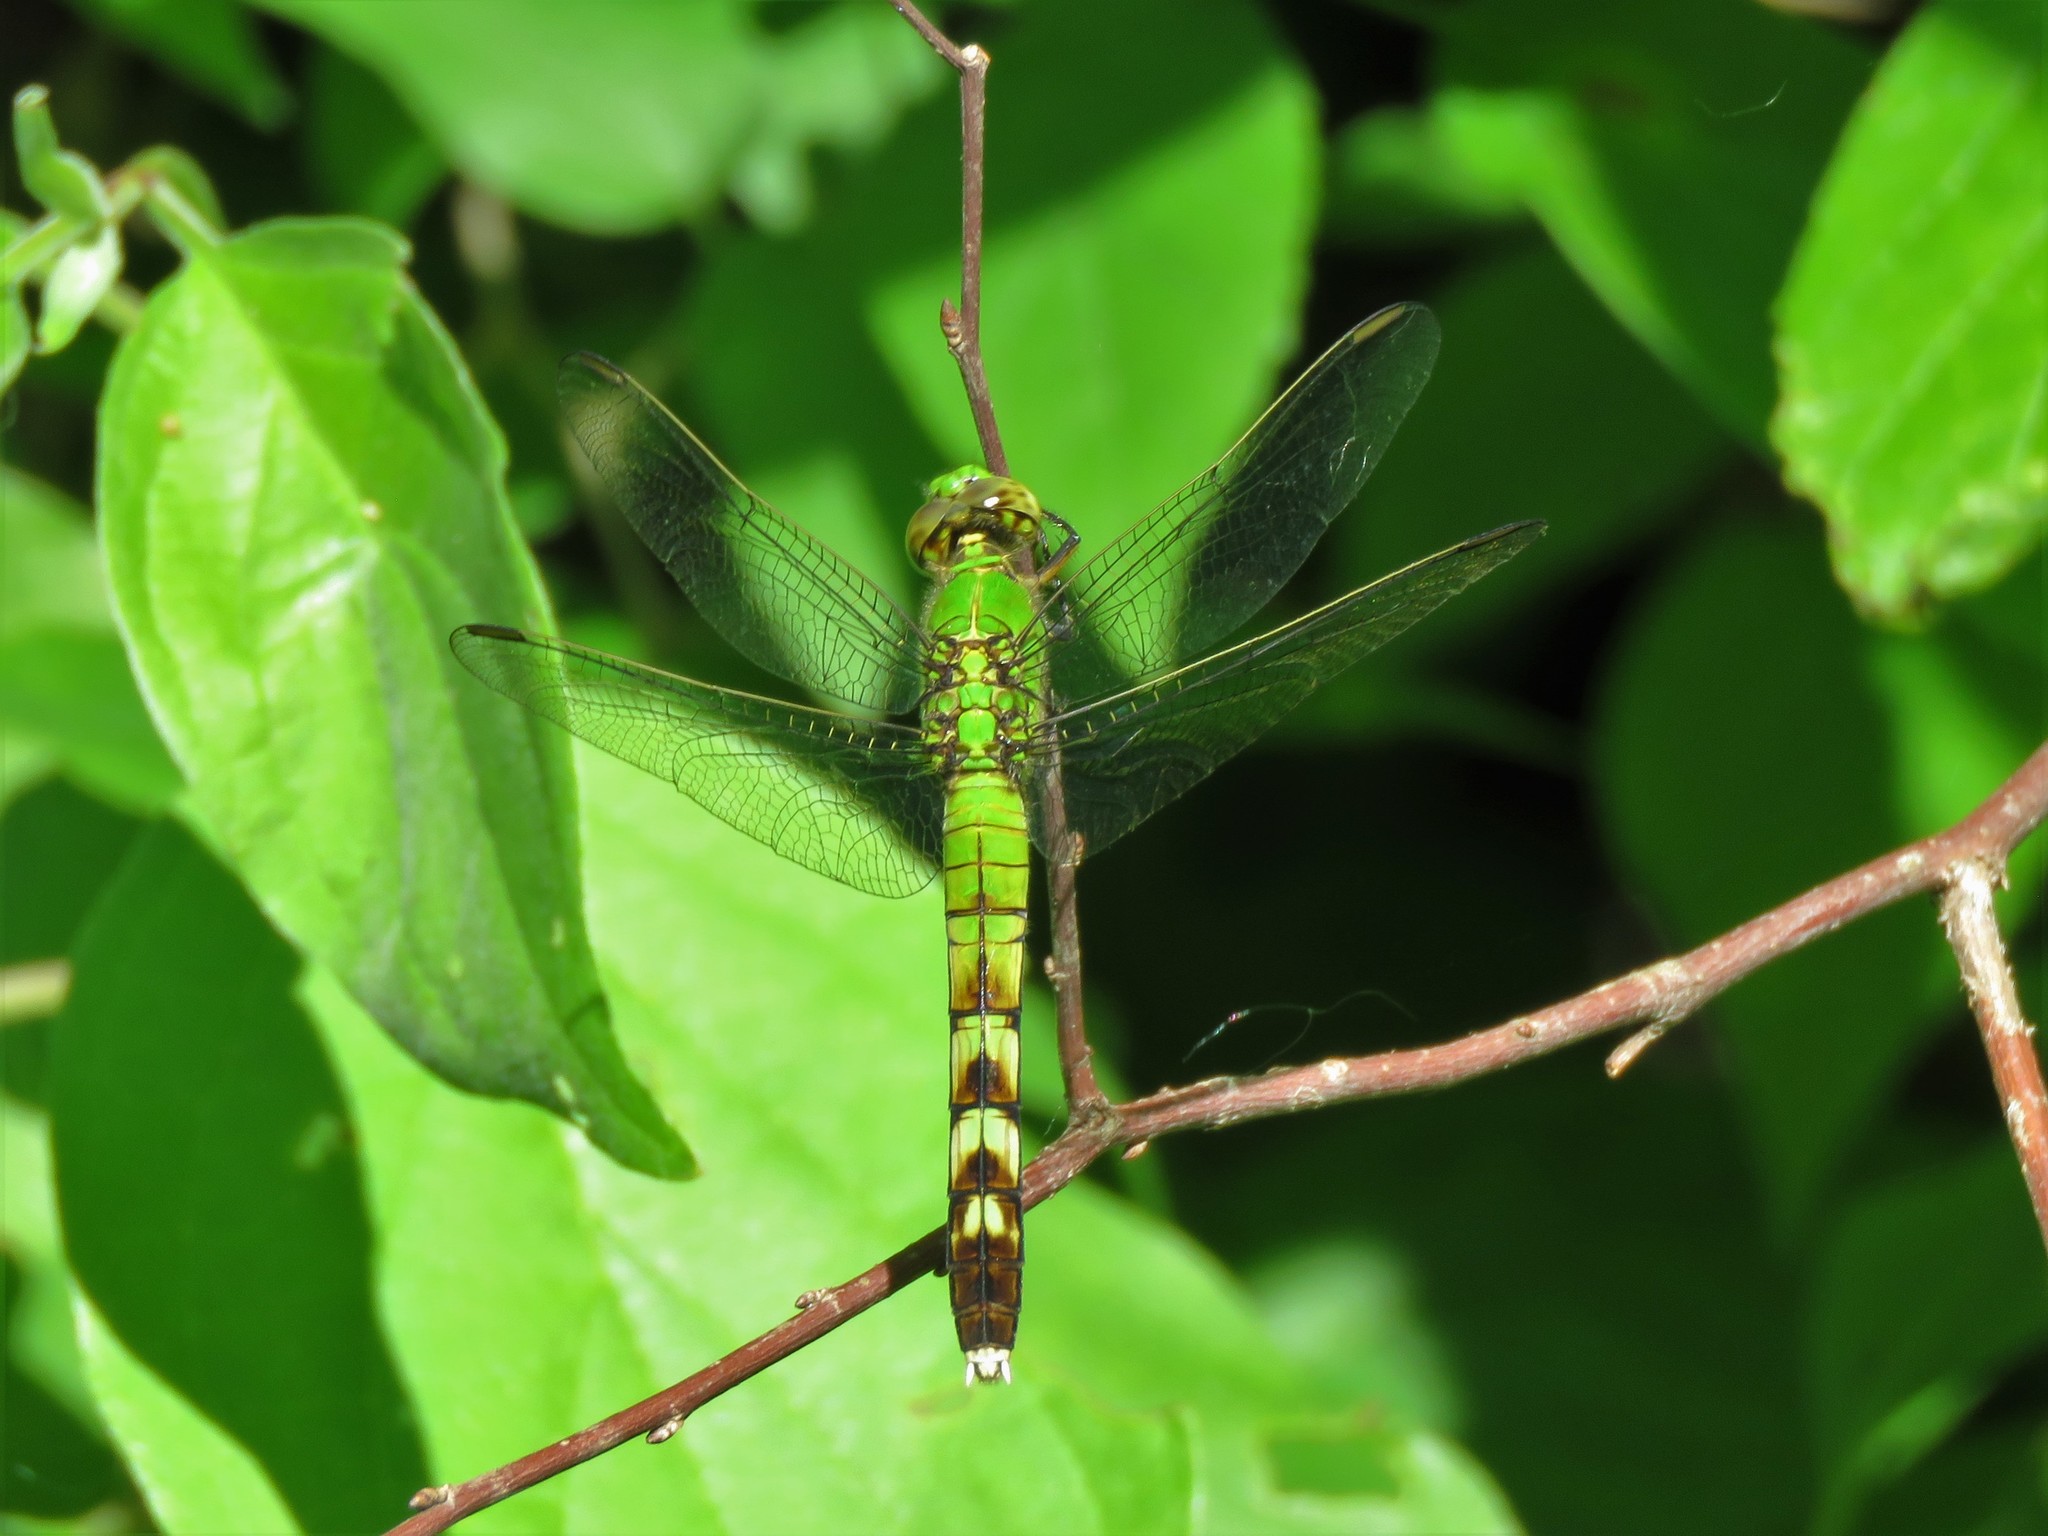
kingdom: Animalia
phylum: Arthropoda
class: Insecta
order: Odonata
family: Libellulidae
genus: Erythemis
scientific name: Erythemis simplicicollis
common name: Eastern pondhawk
